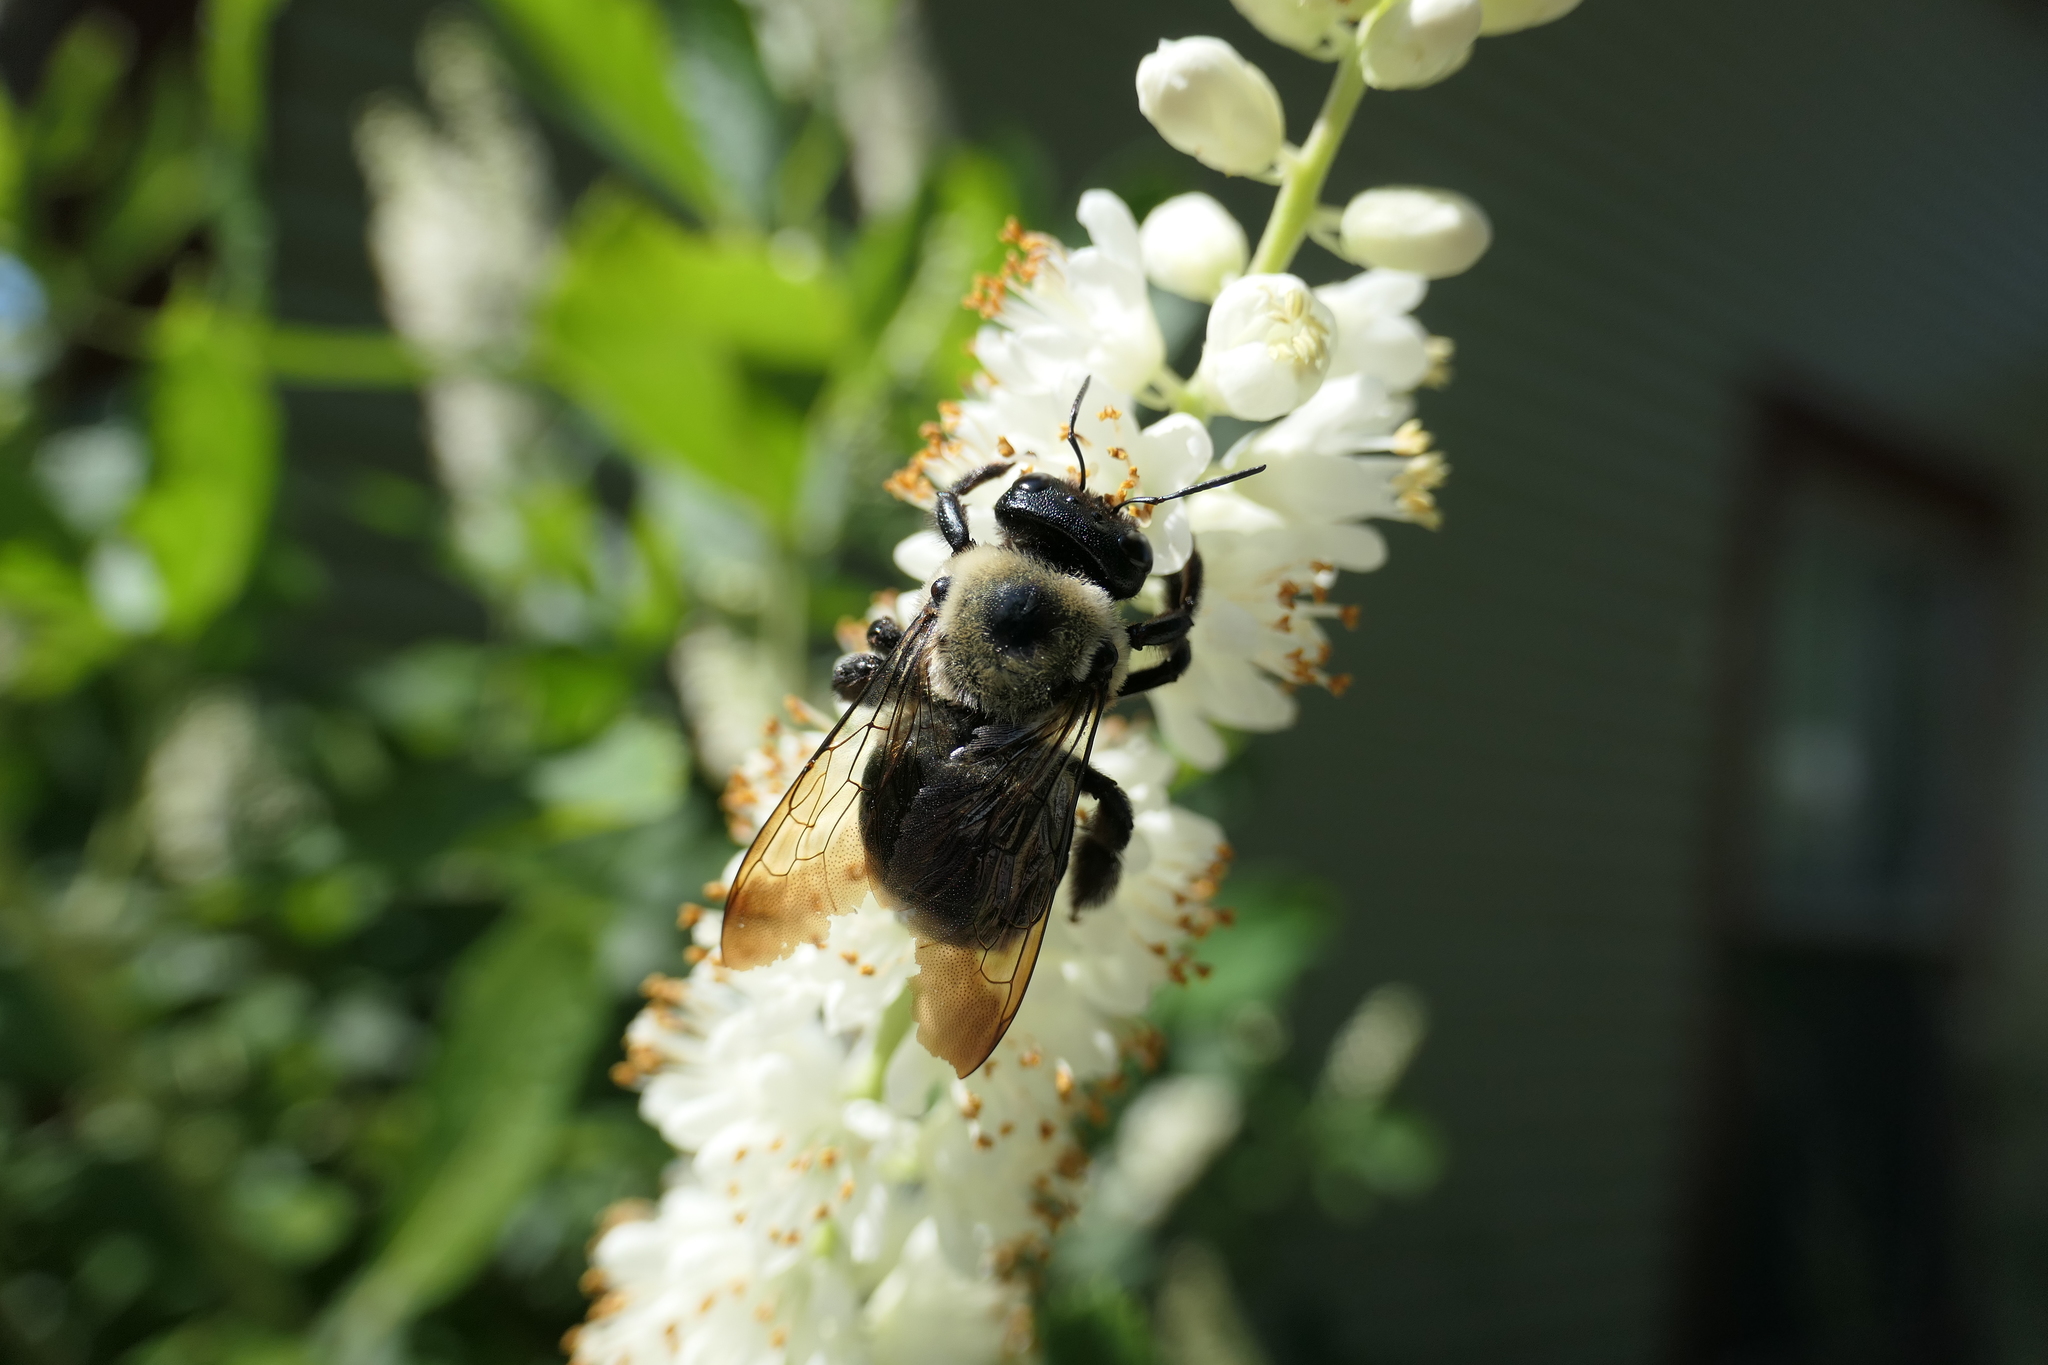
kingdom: Animalia
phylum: Arthropoda
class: Insecta
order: Hymenoptera
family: Apidae
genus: Xylocopa
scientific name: Xylocopa virginica
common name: Carpenter bee
